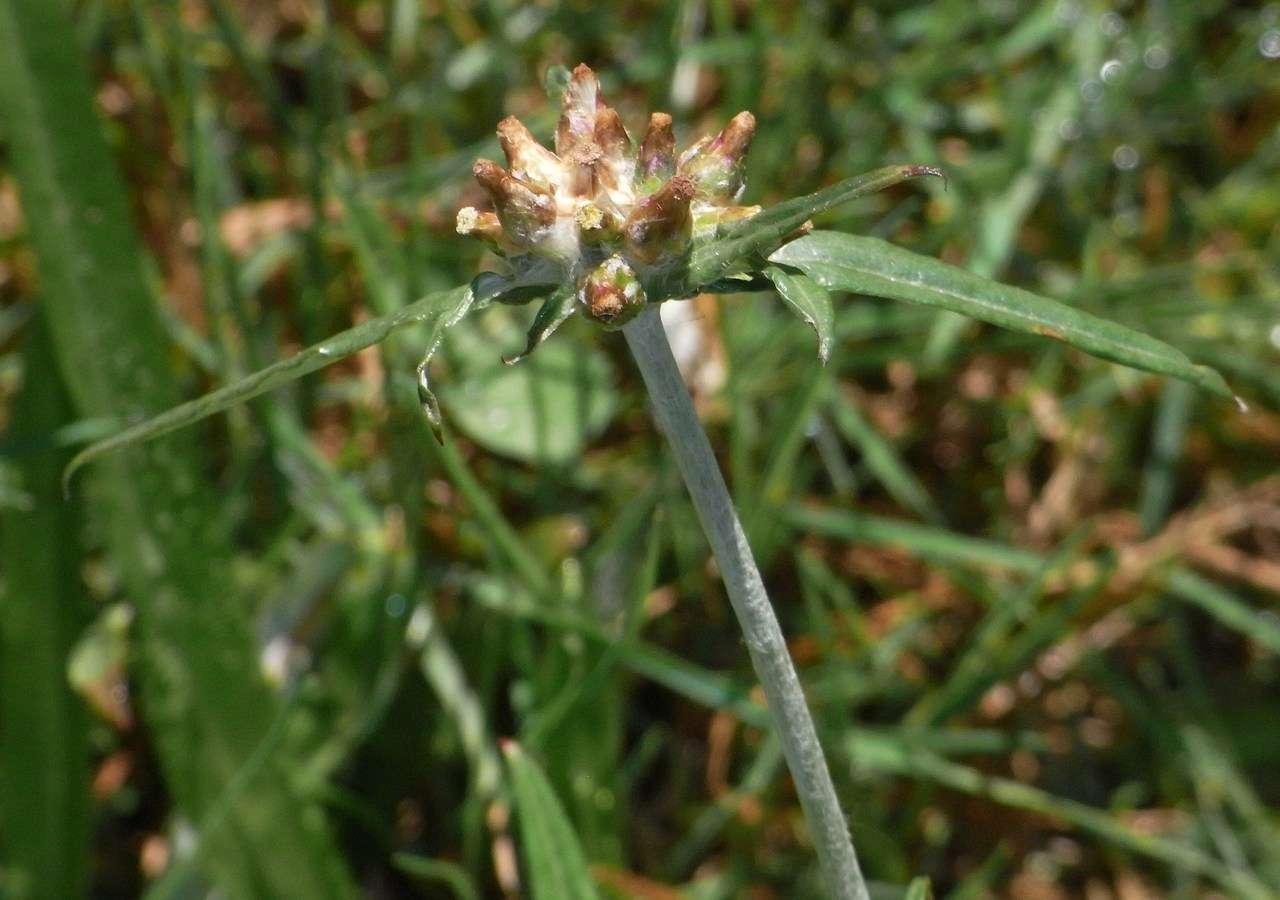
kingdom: Plantae
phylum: Tracheophyta
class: Magnoliopsida
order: Asterales
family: Asteraceae
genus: Euchiton
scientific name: Euchiton involucratus
